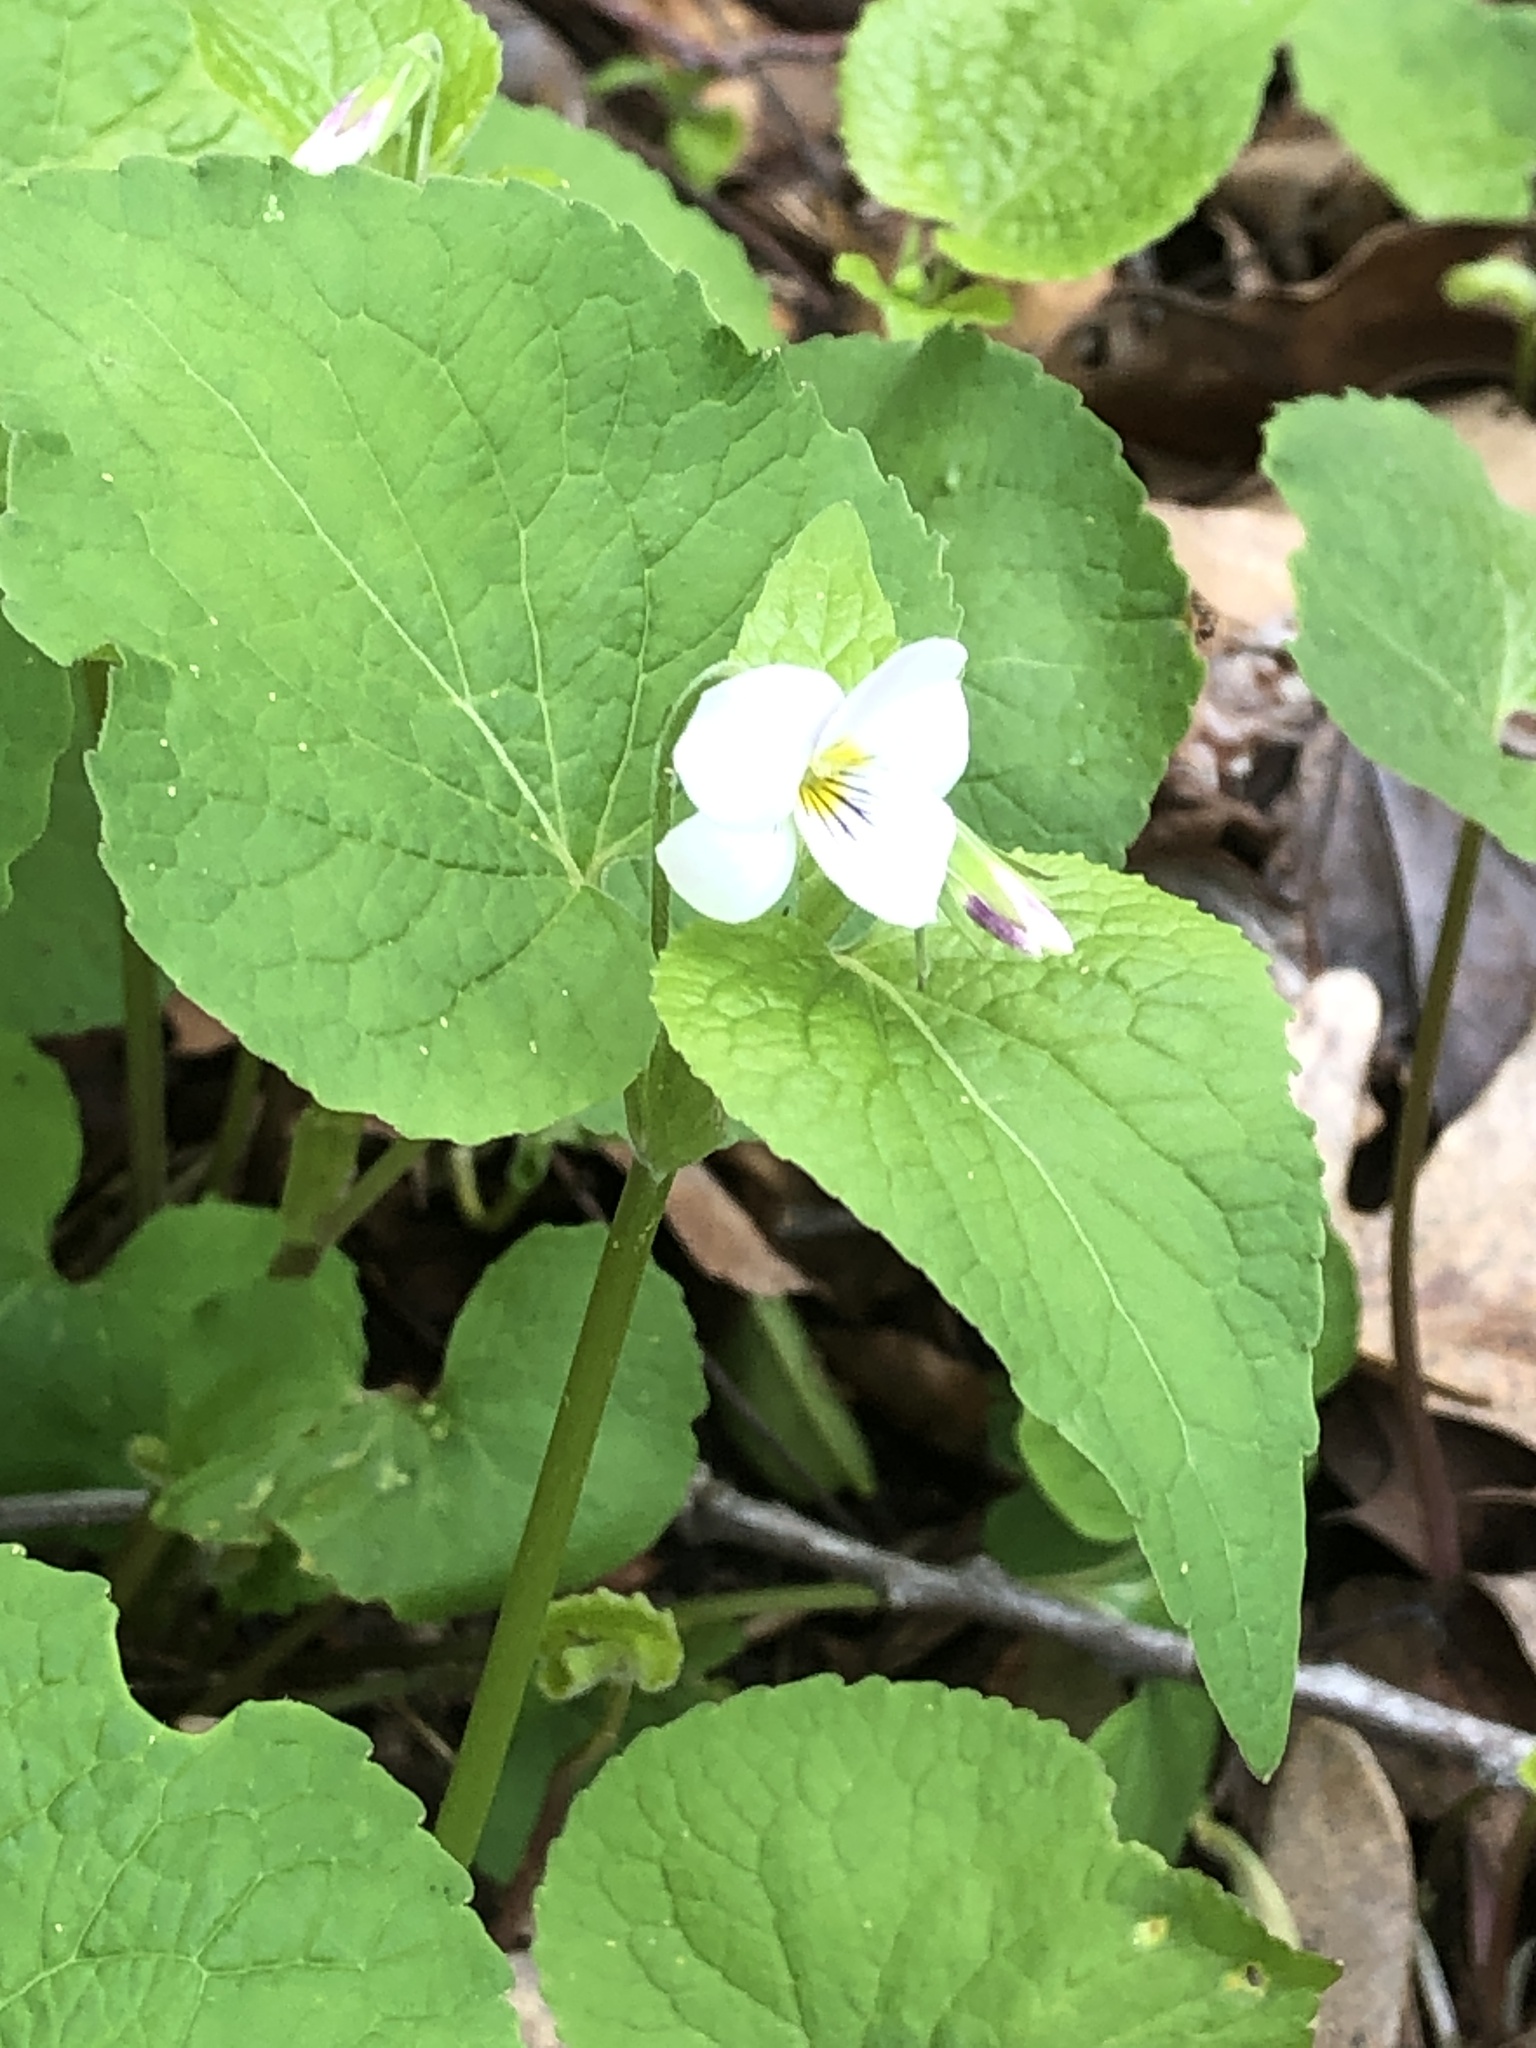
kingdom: Plantae
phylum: Tracheophyta
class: Magnoliopsida
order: Malpighiales
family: Violaceae
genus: Viola
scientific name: Viola canadensis
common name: Canada violet
